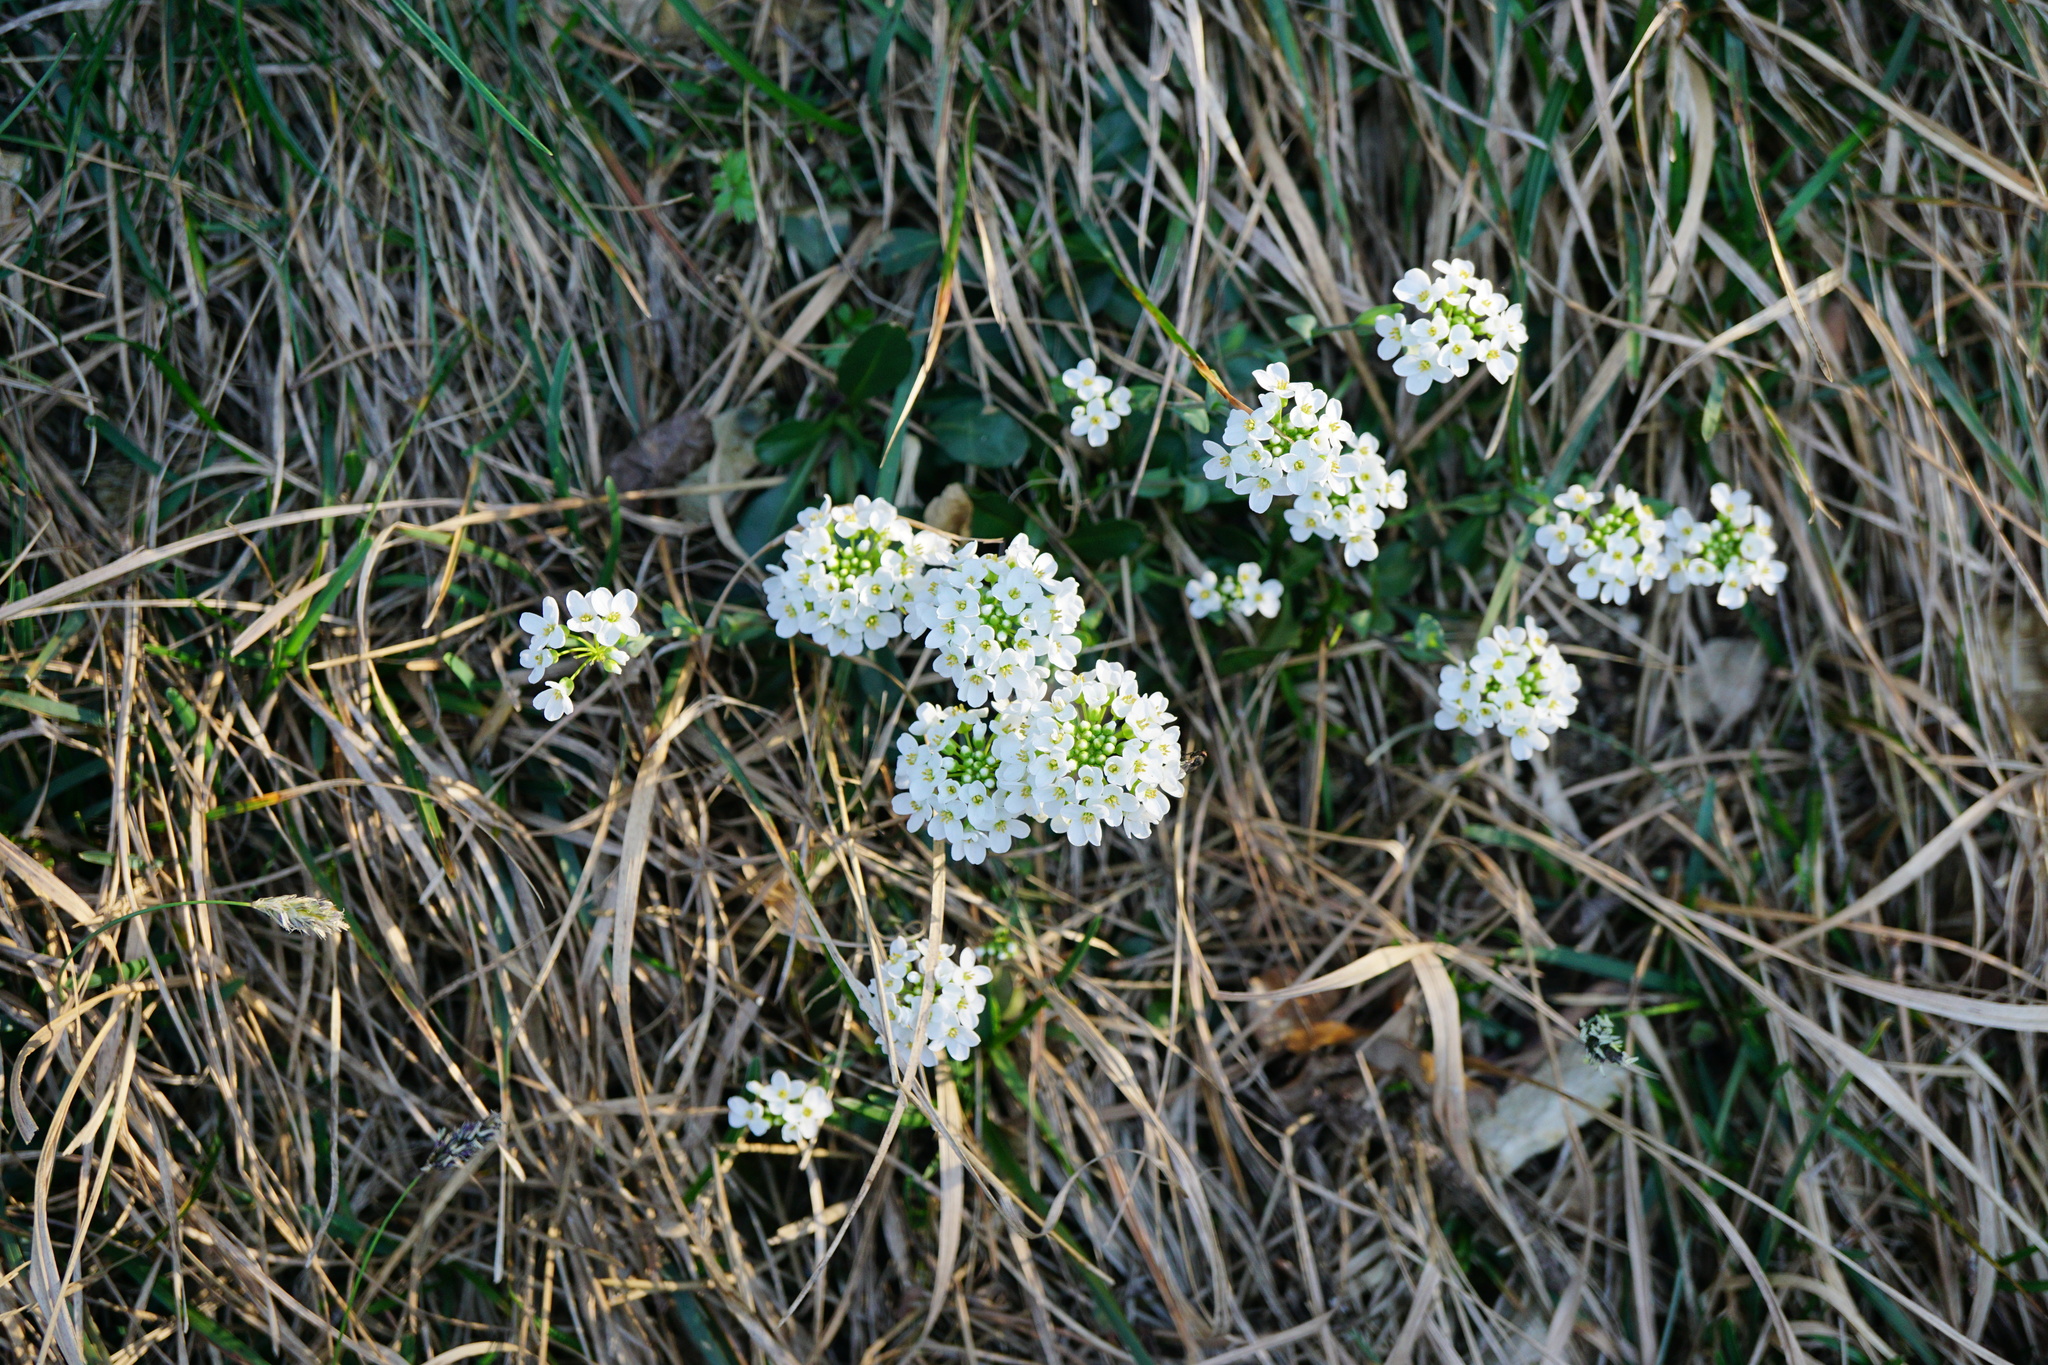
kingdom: Plantae
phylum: Tracheophyta
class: Magnoliopsida
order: Brassicales
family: Brassicaceae
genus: Noccaea
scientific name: Noccaea montana
